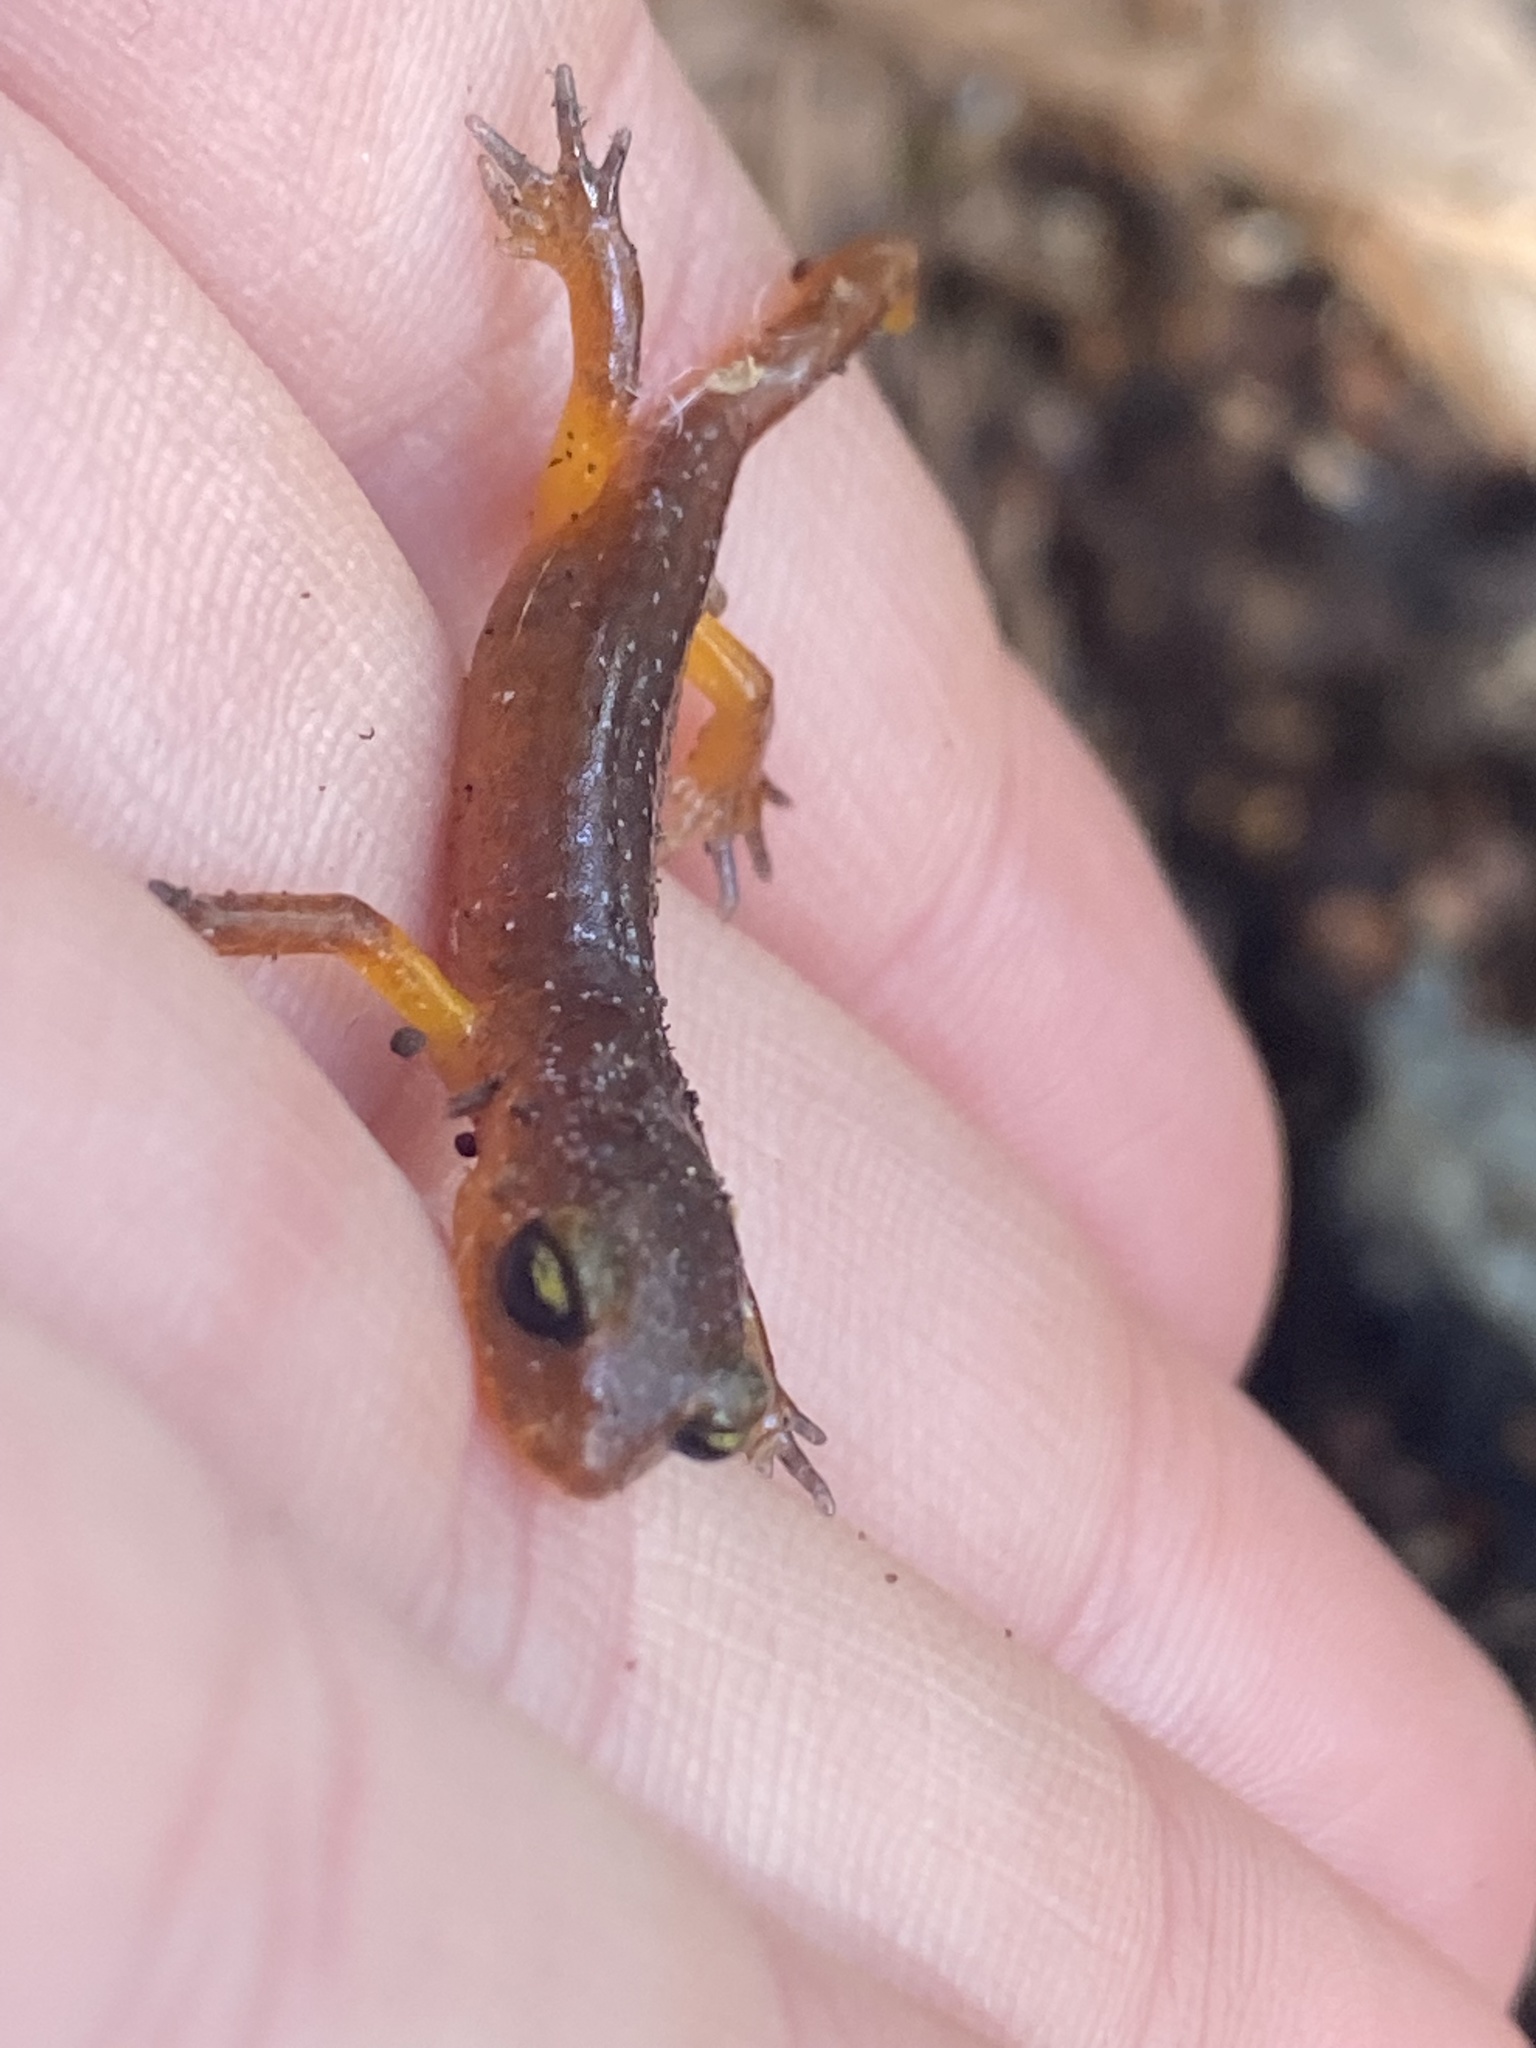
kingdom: Animalia
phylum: Chordata
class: Amphibia
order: Caudata
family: Plethodontidae
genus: Ensatina
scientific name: Ensatina eschscholtzii
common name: Ensatina
